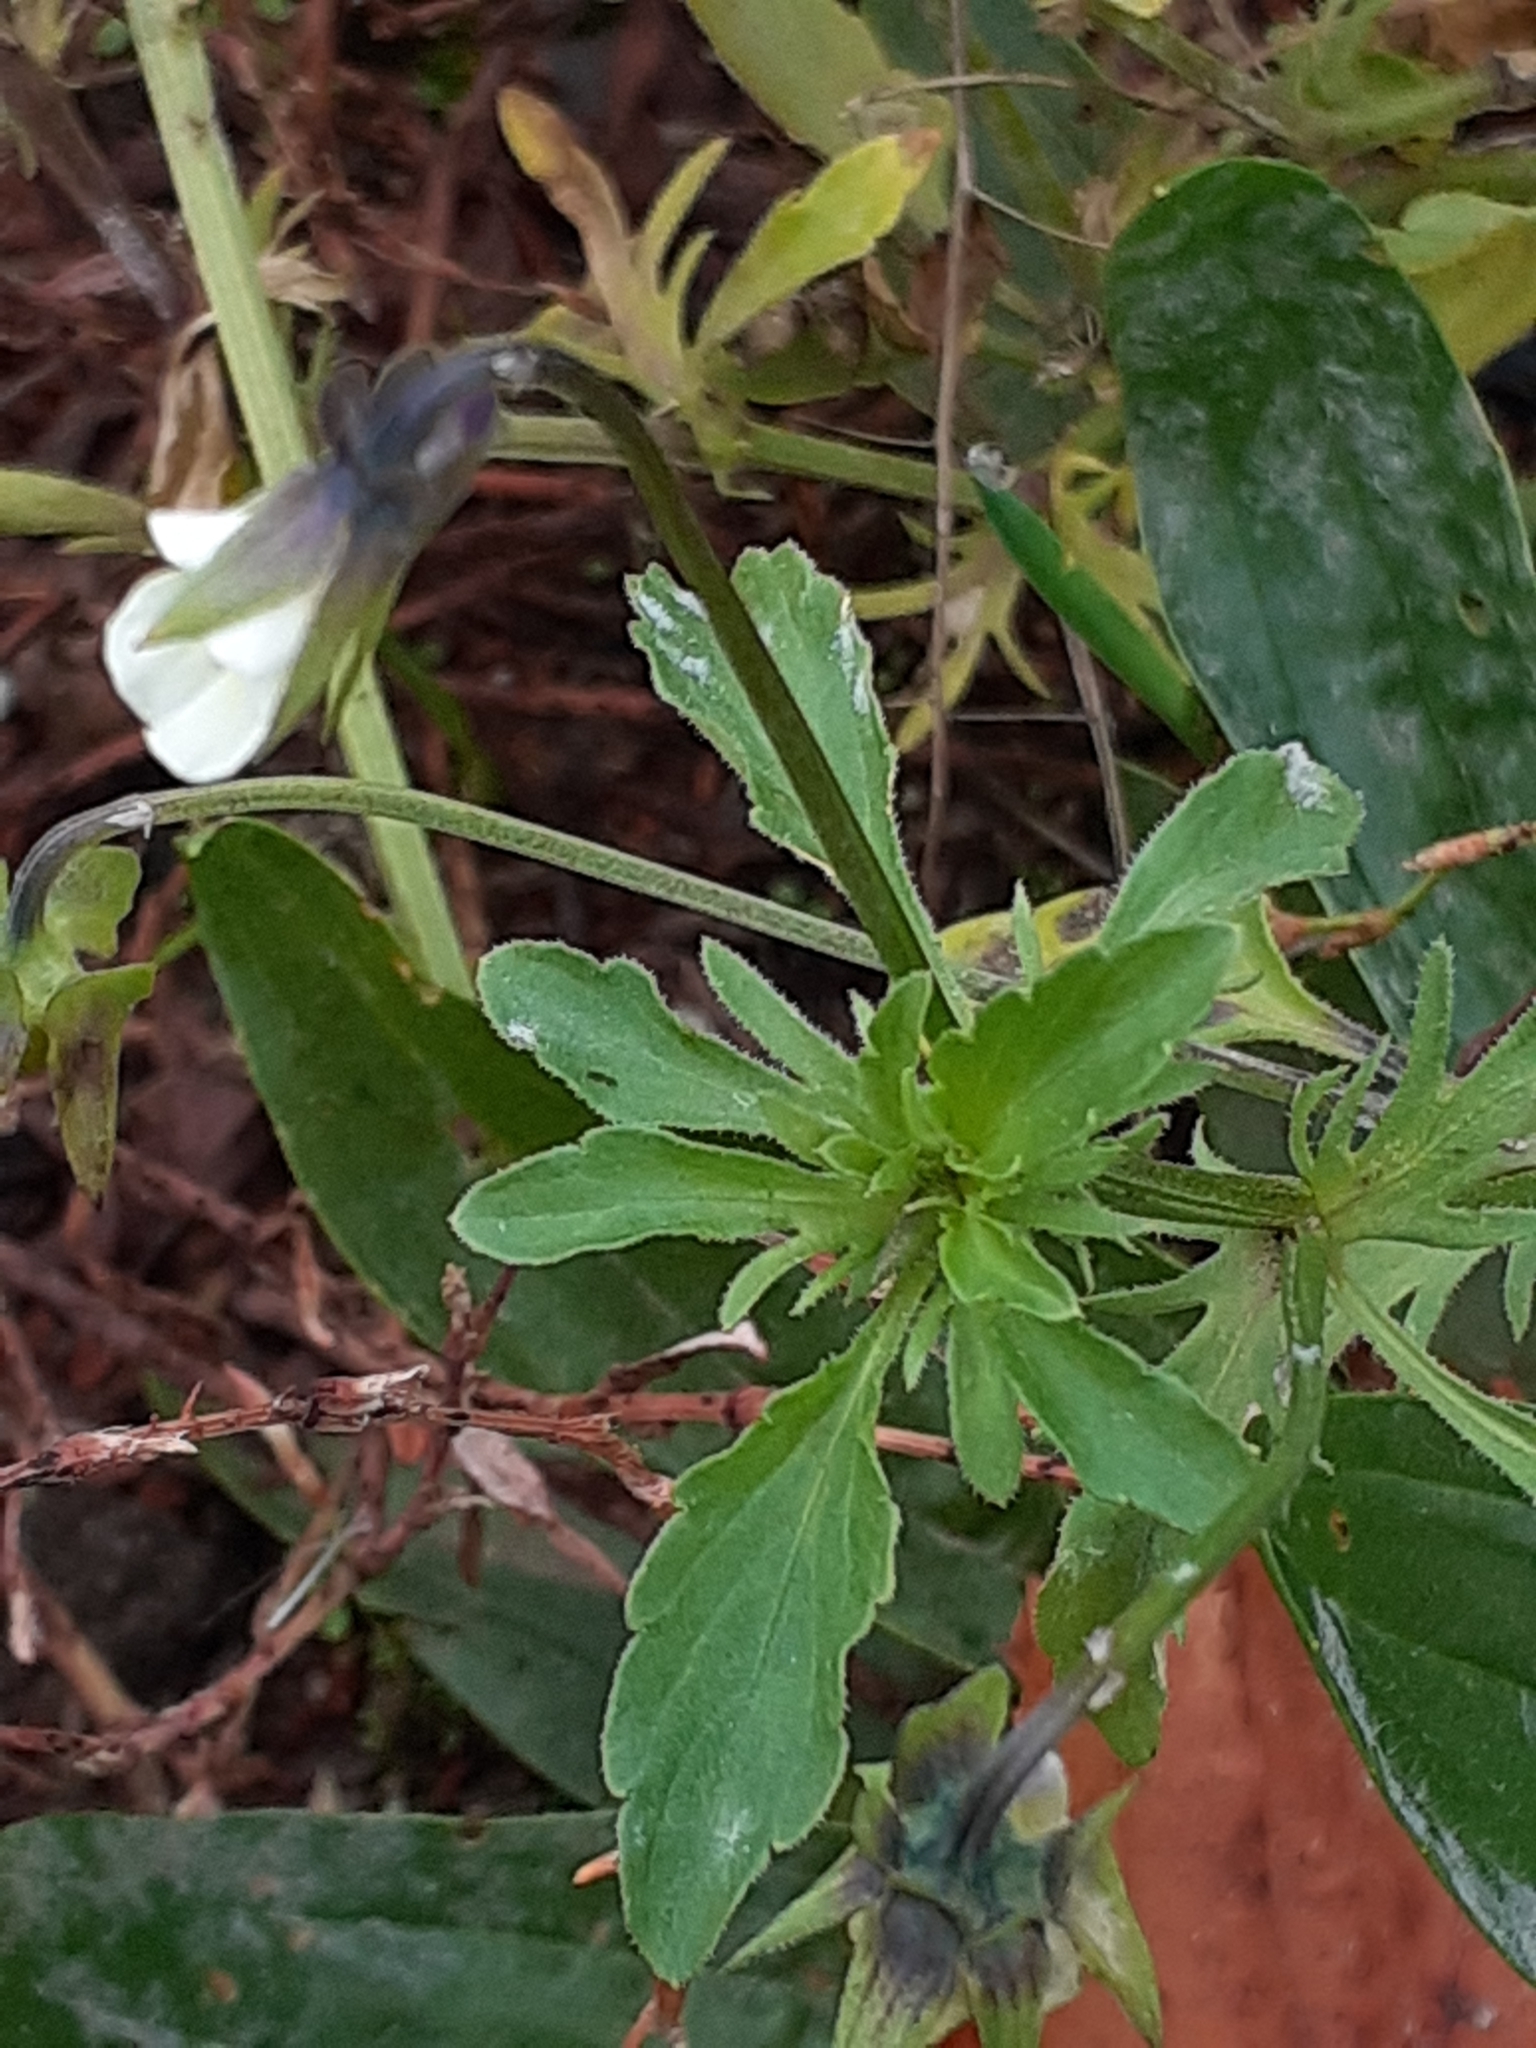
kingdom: Plantae
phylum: Tracheophyta
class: Magnoliopsida
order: Malpighiales
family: Violaceae
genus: Viola
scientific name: Viola arvensis
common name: Field pansy
